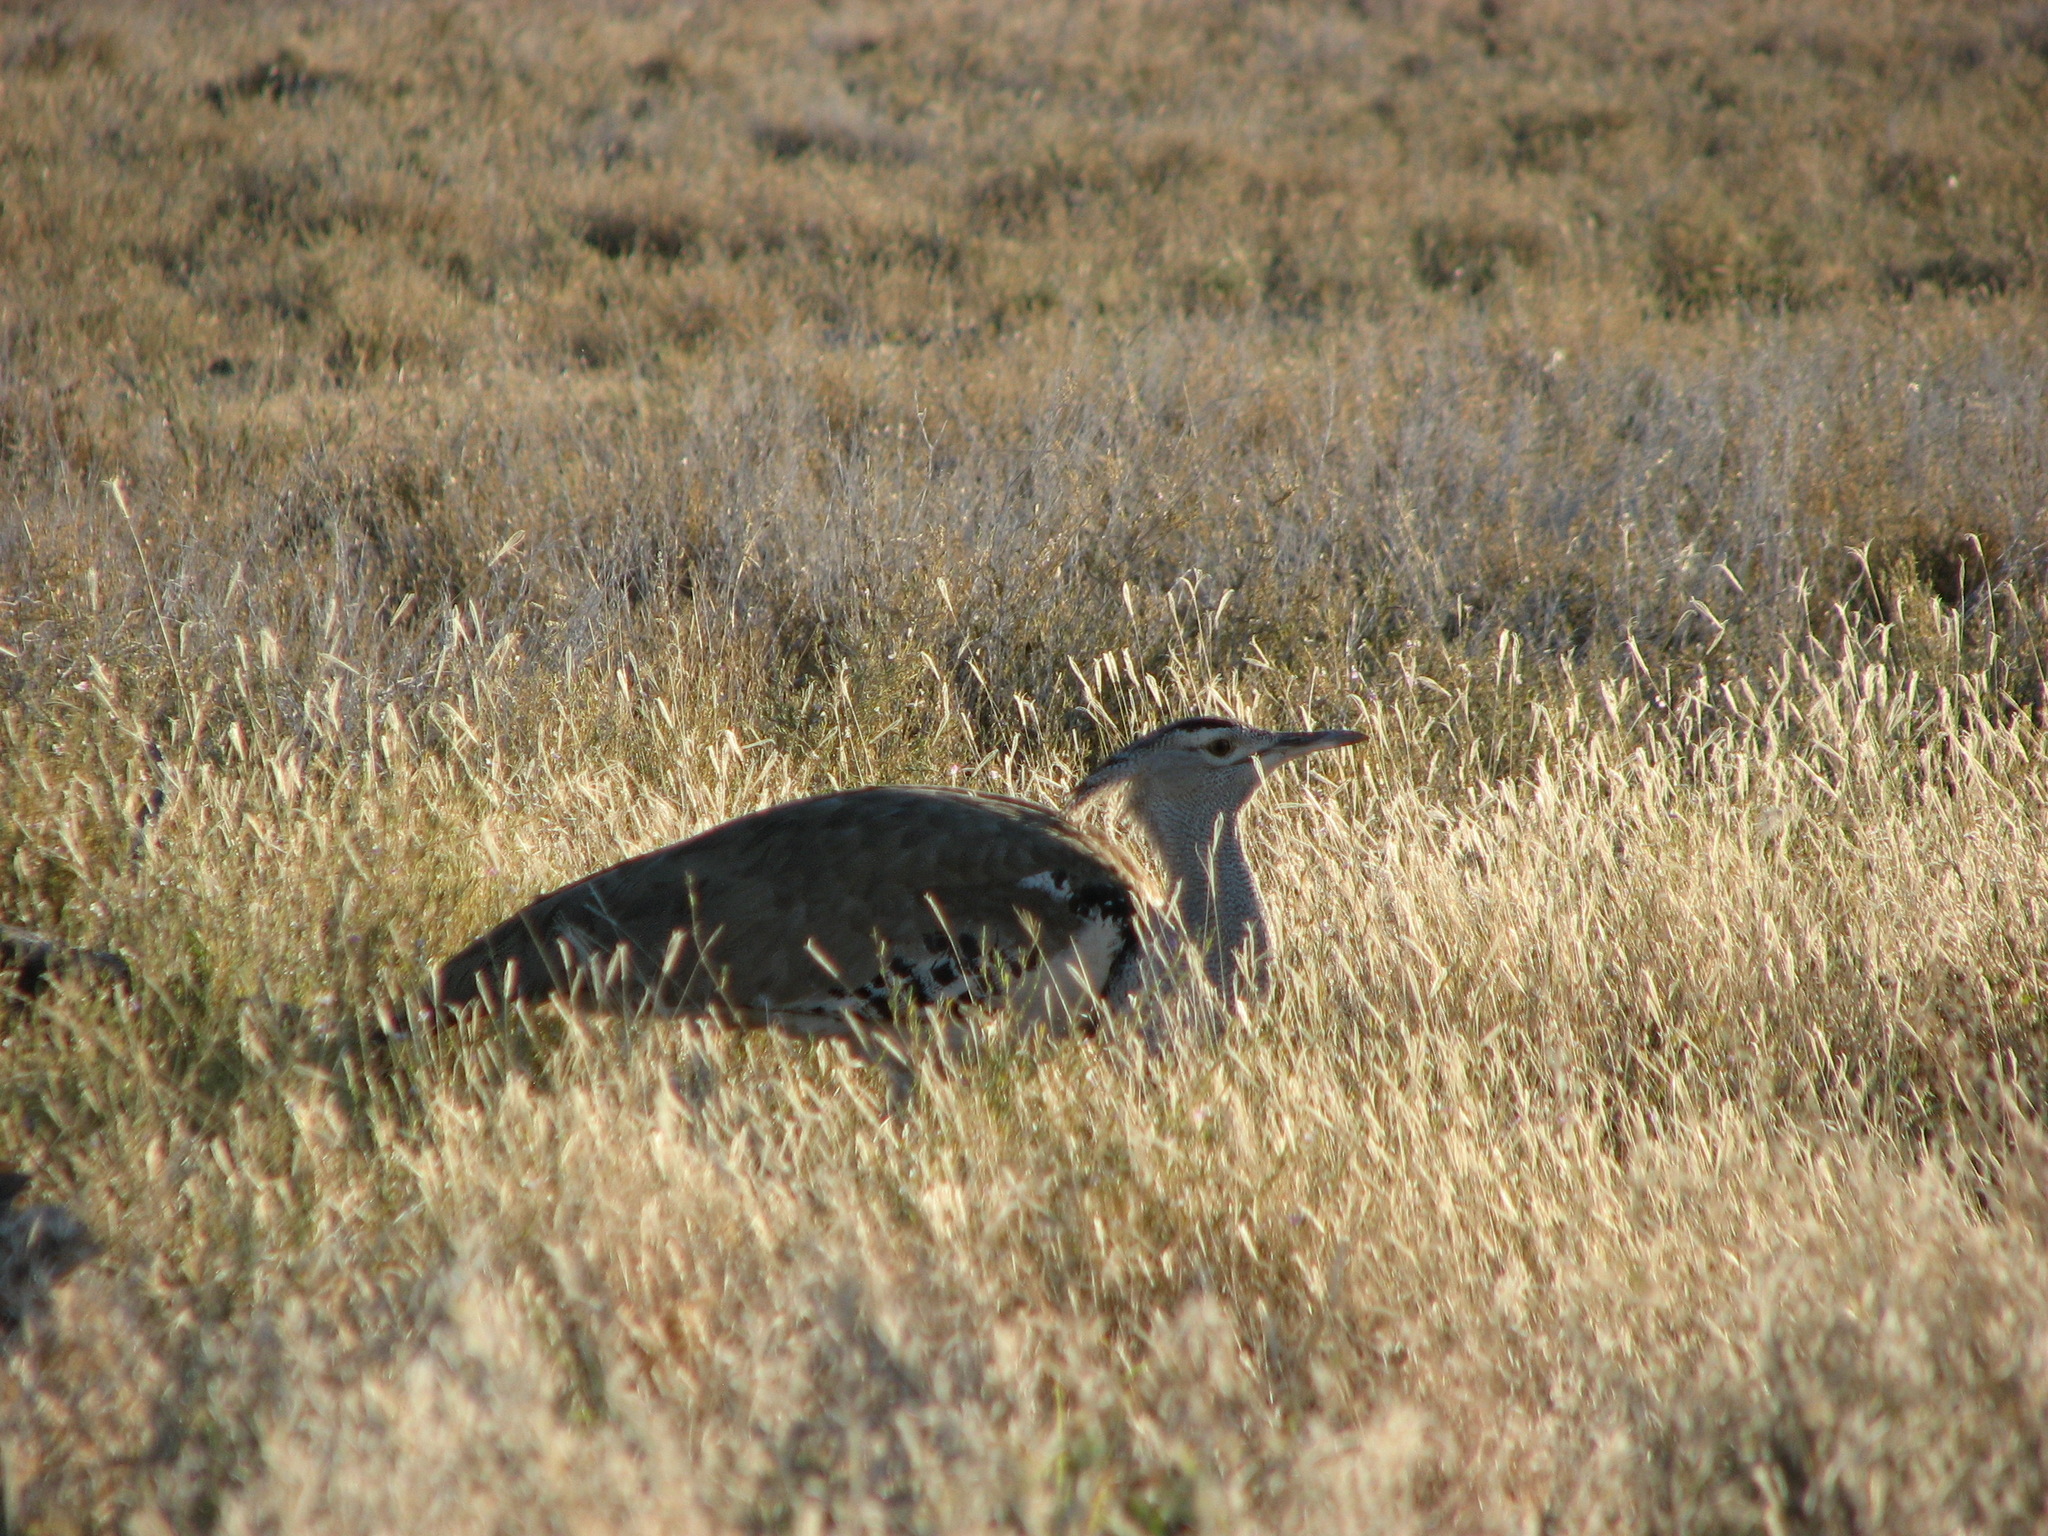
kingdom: Animalia
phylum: Chordata
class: Aves
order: Otidiformes
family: Otididae
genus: Ardeotis
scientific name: Ardeotis kori
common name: Kori bustard
